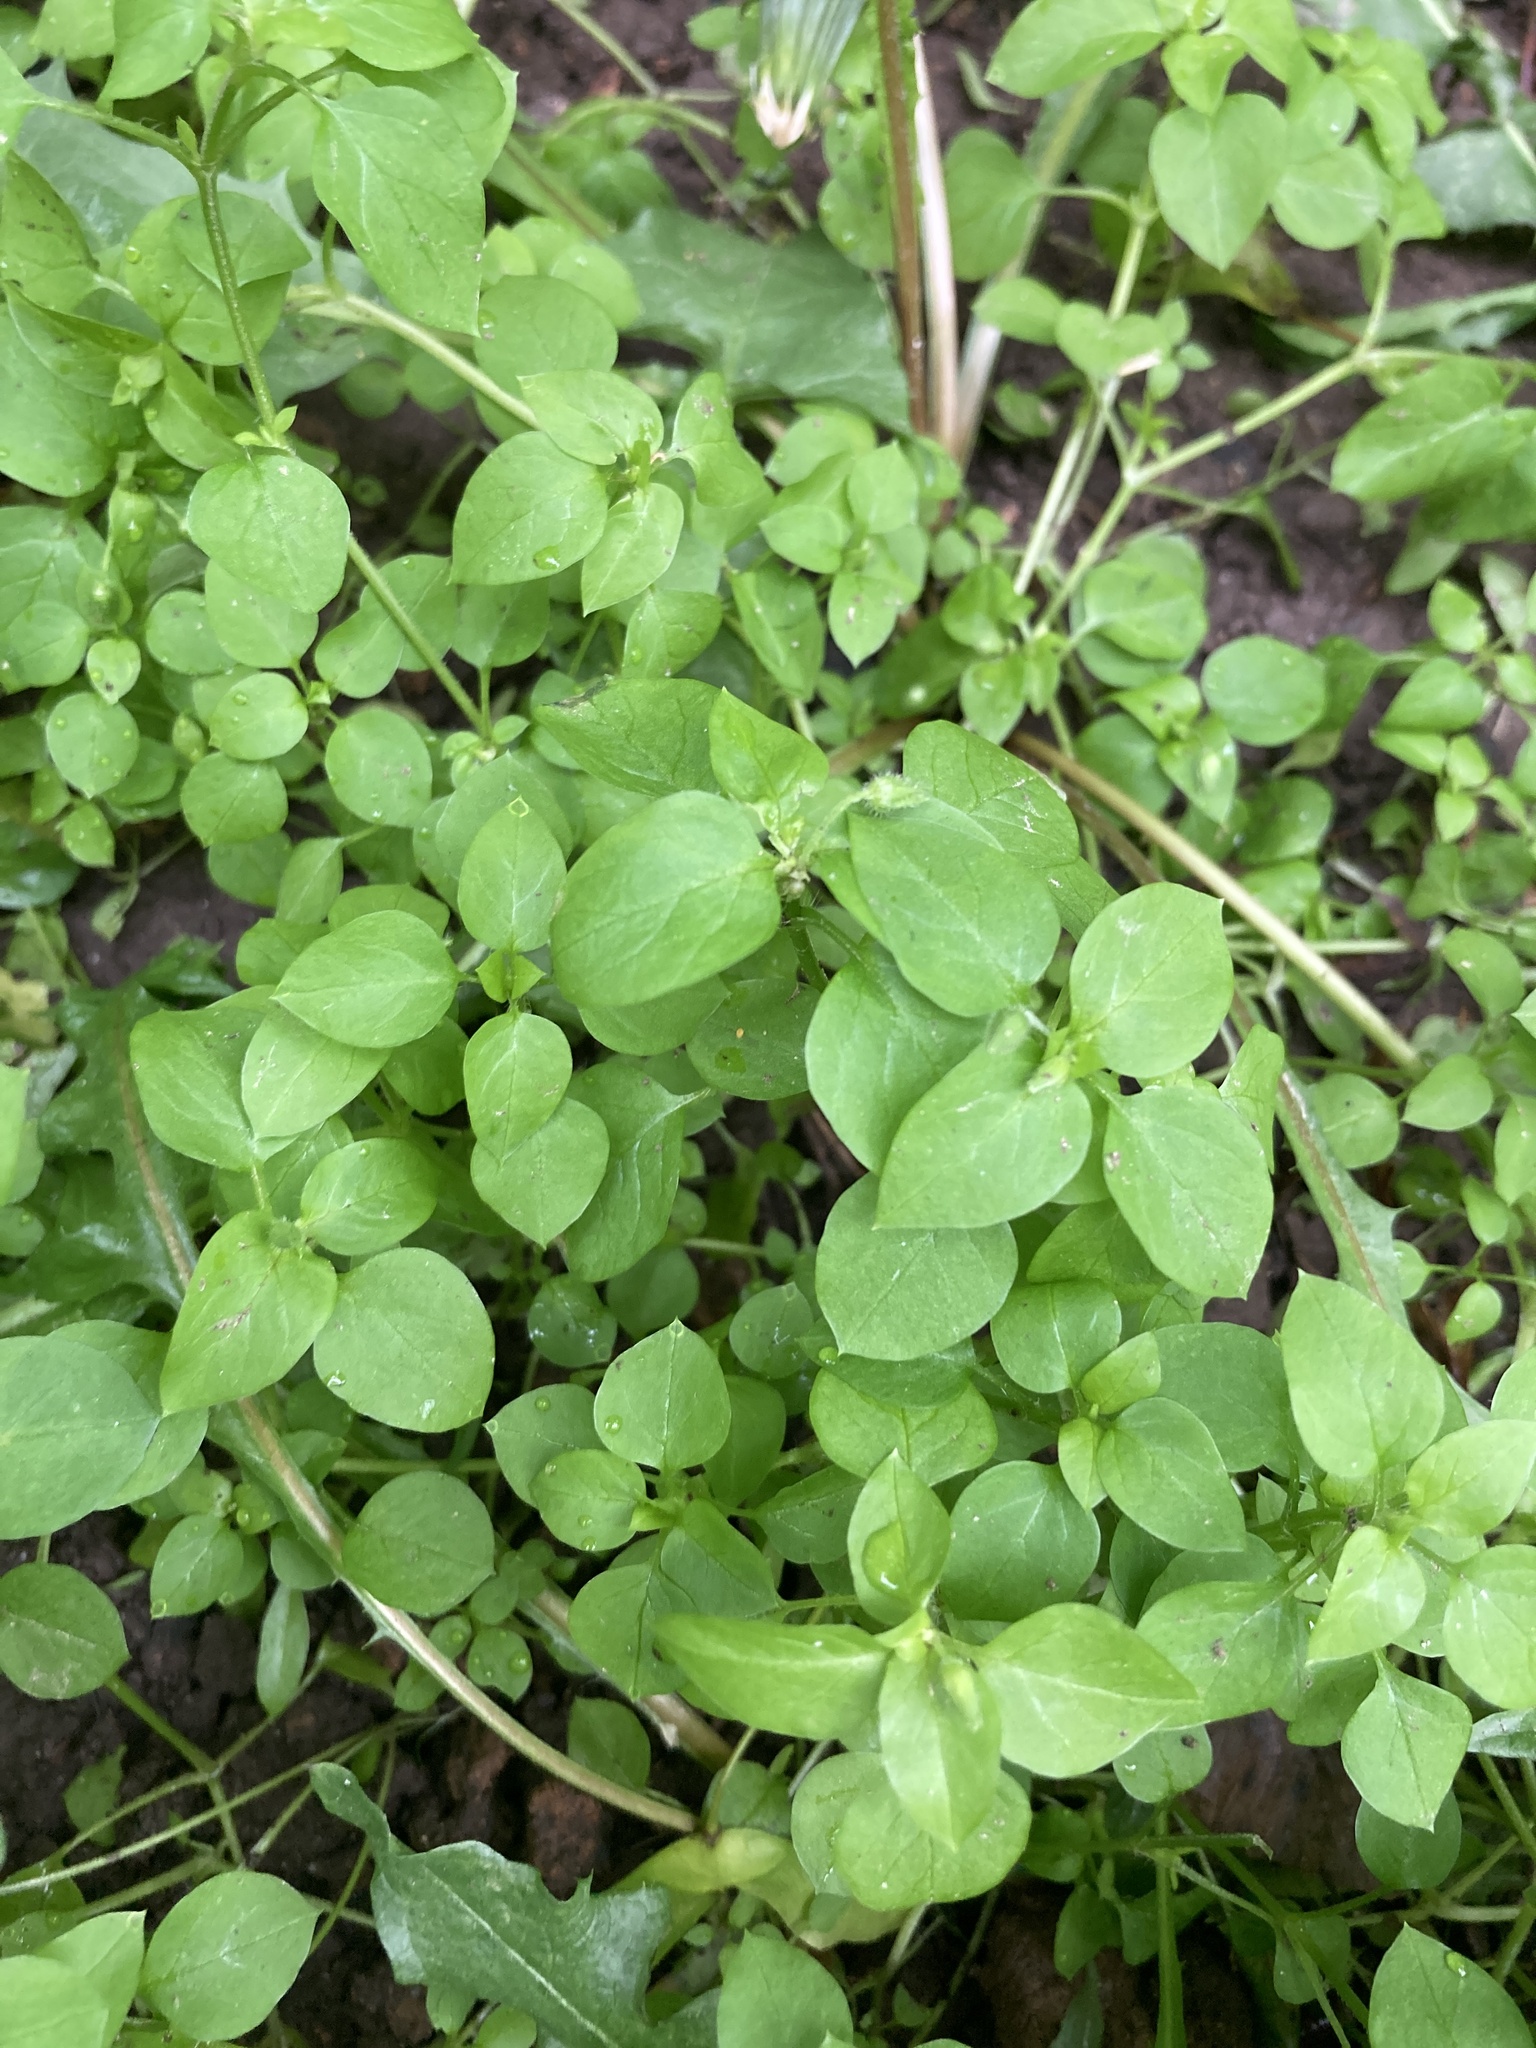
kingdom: Plantae
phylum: Tracheophyta
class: Magnoliopsida
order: Caryophyllales
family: Caryophyllaceae
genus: Stellaria
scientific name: Stellaria media
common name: Common chickweed
